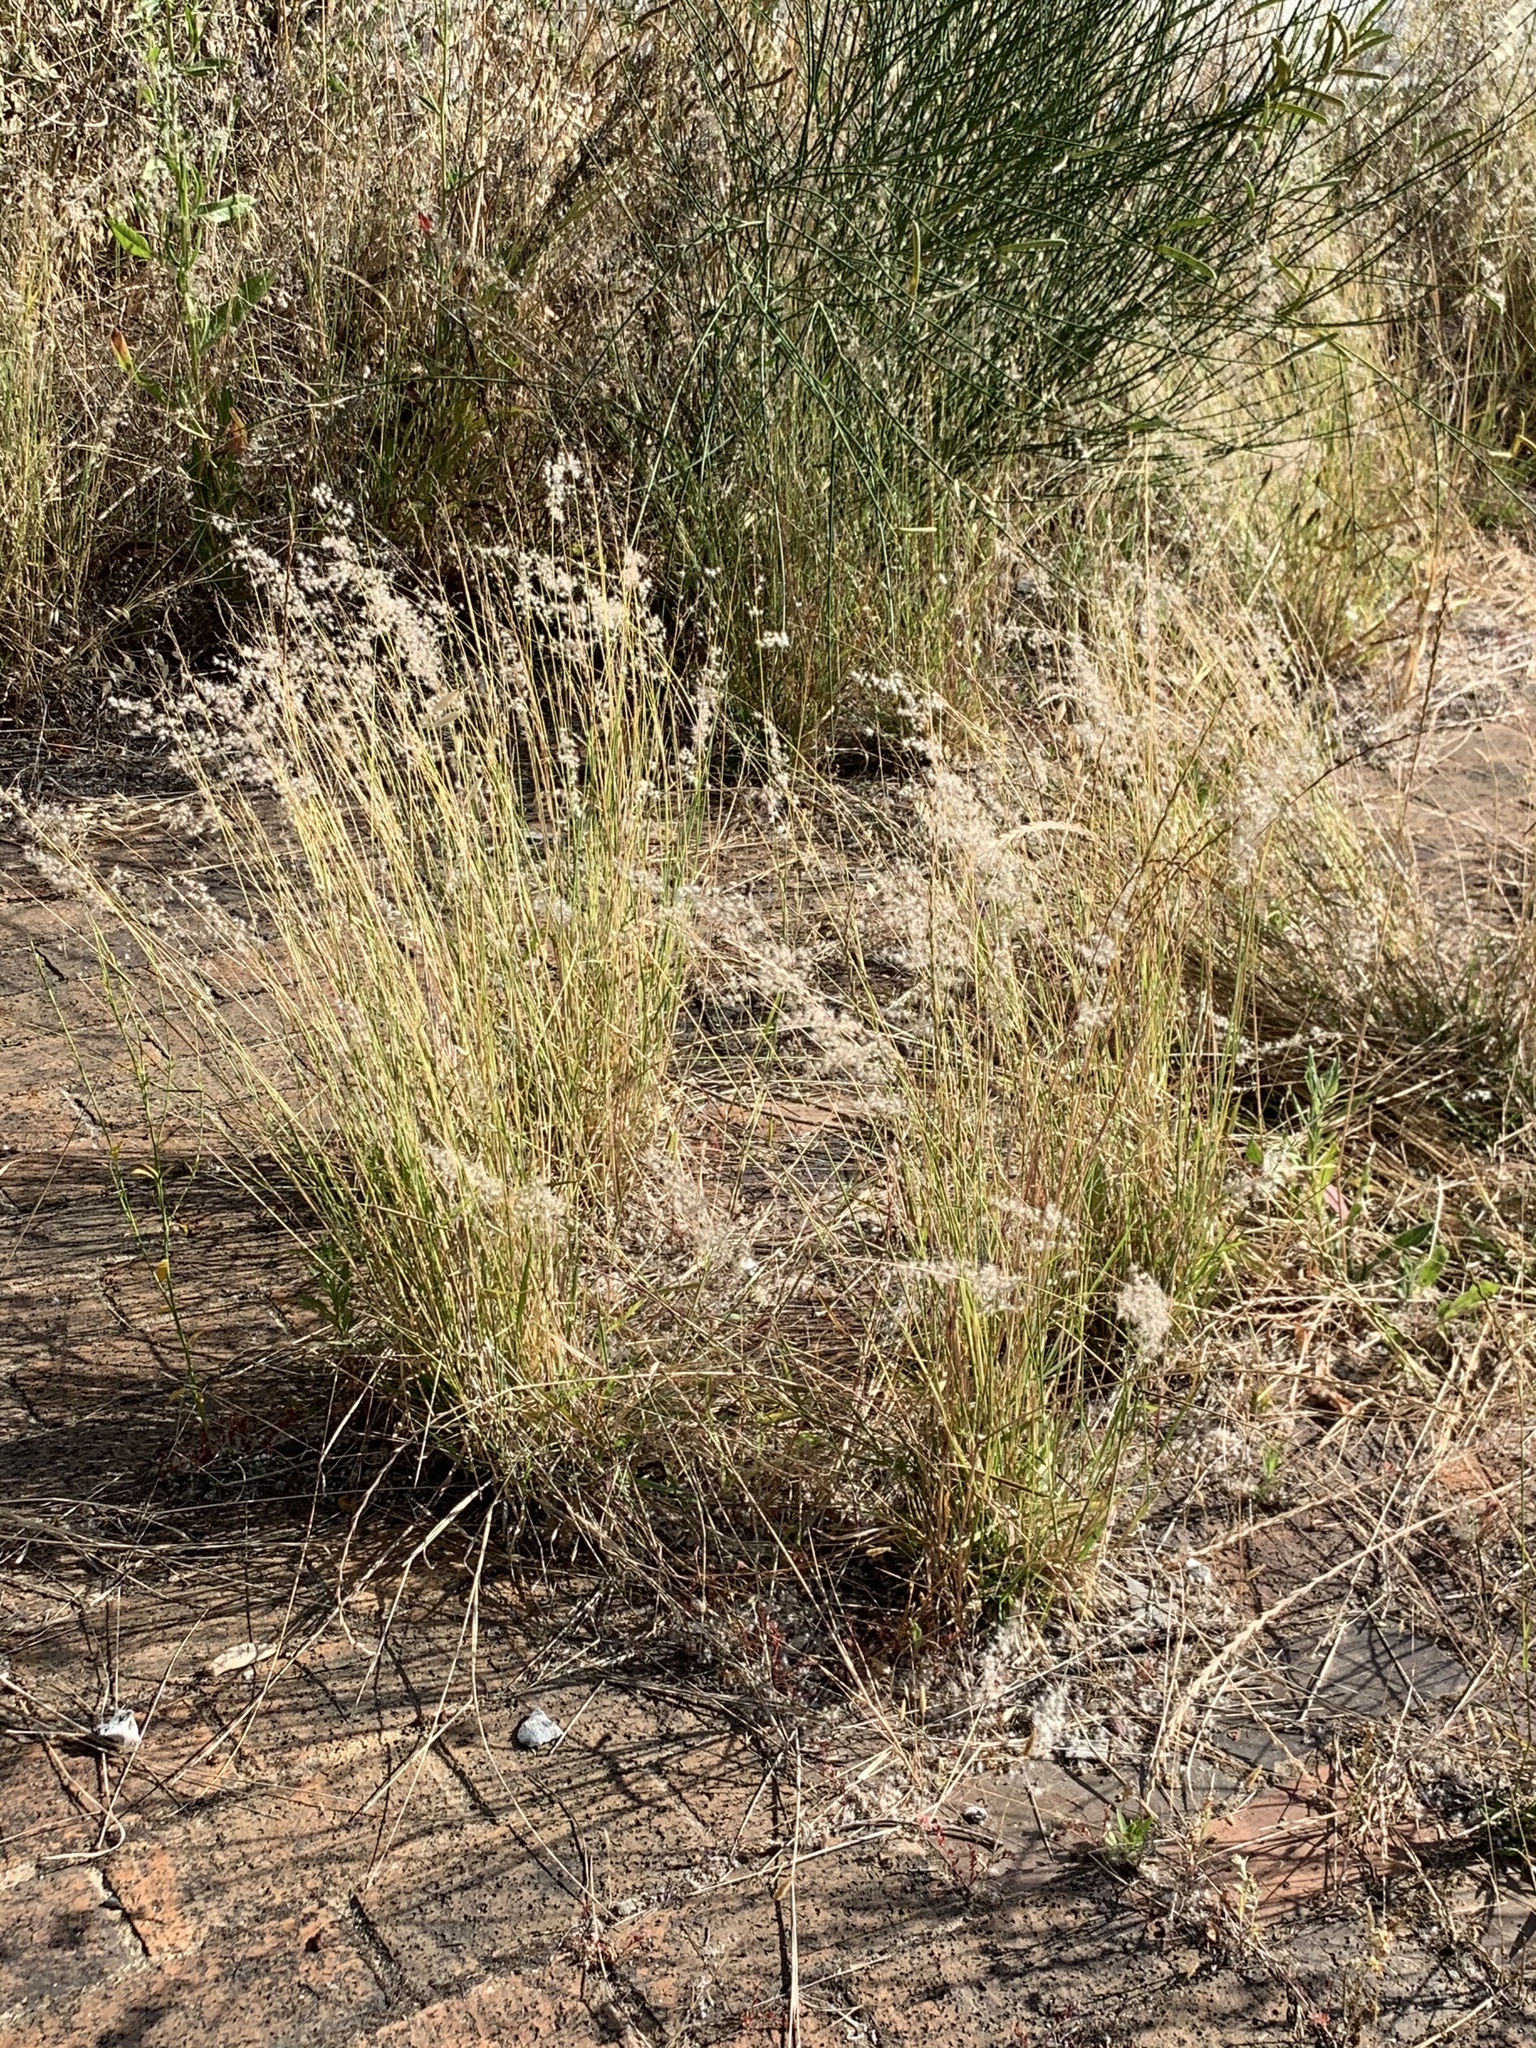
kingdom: Plantae
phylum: Tracheophyta
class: Liliopsida
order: Poales
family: Poaceae
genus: Melinis
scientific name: Melinis repens
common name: Rose natal grass
